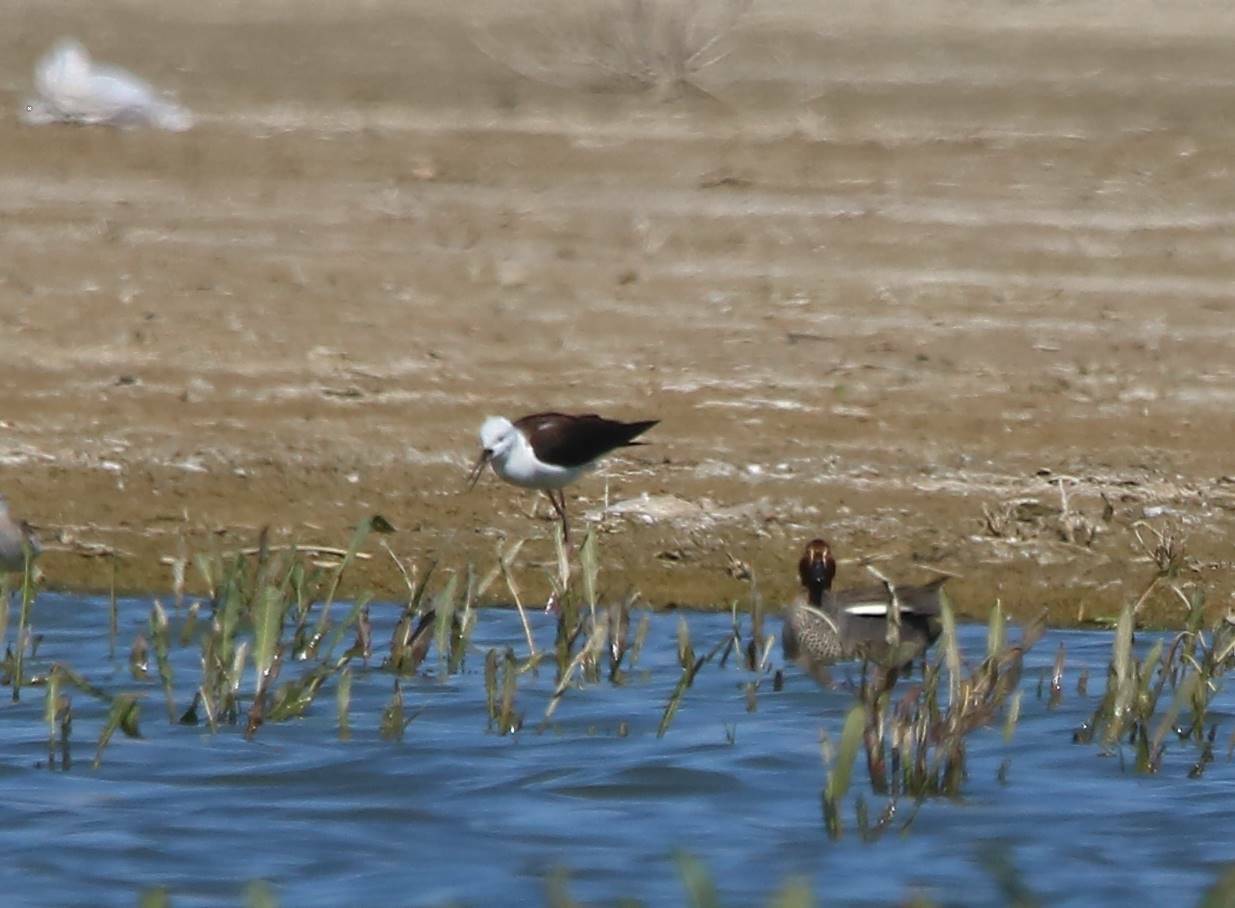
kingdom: Animalia
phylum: Chordata
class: Aves
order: Charadriiformes
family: Recurvirostridae
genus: Himantopus
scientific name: Himantopus himantopus
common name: Black-winged stilt
